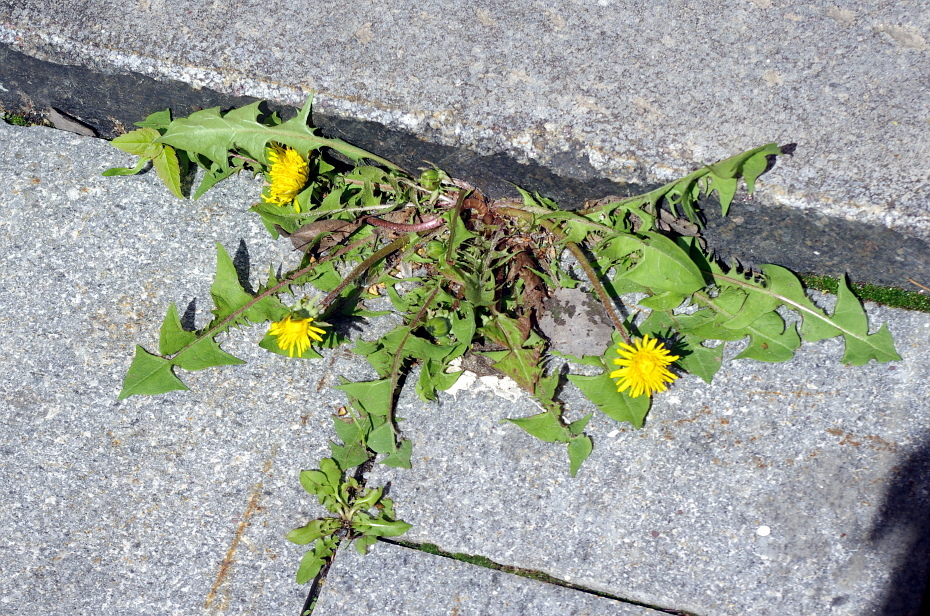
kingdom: Plantae
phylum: Tracheophyta
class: Magnoliopsida
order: Asterales
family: Asteraceae
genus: Taraxacum
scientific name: Taraxacum officinale
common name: Common dandelion
